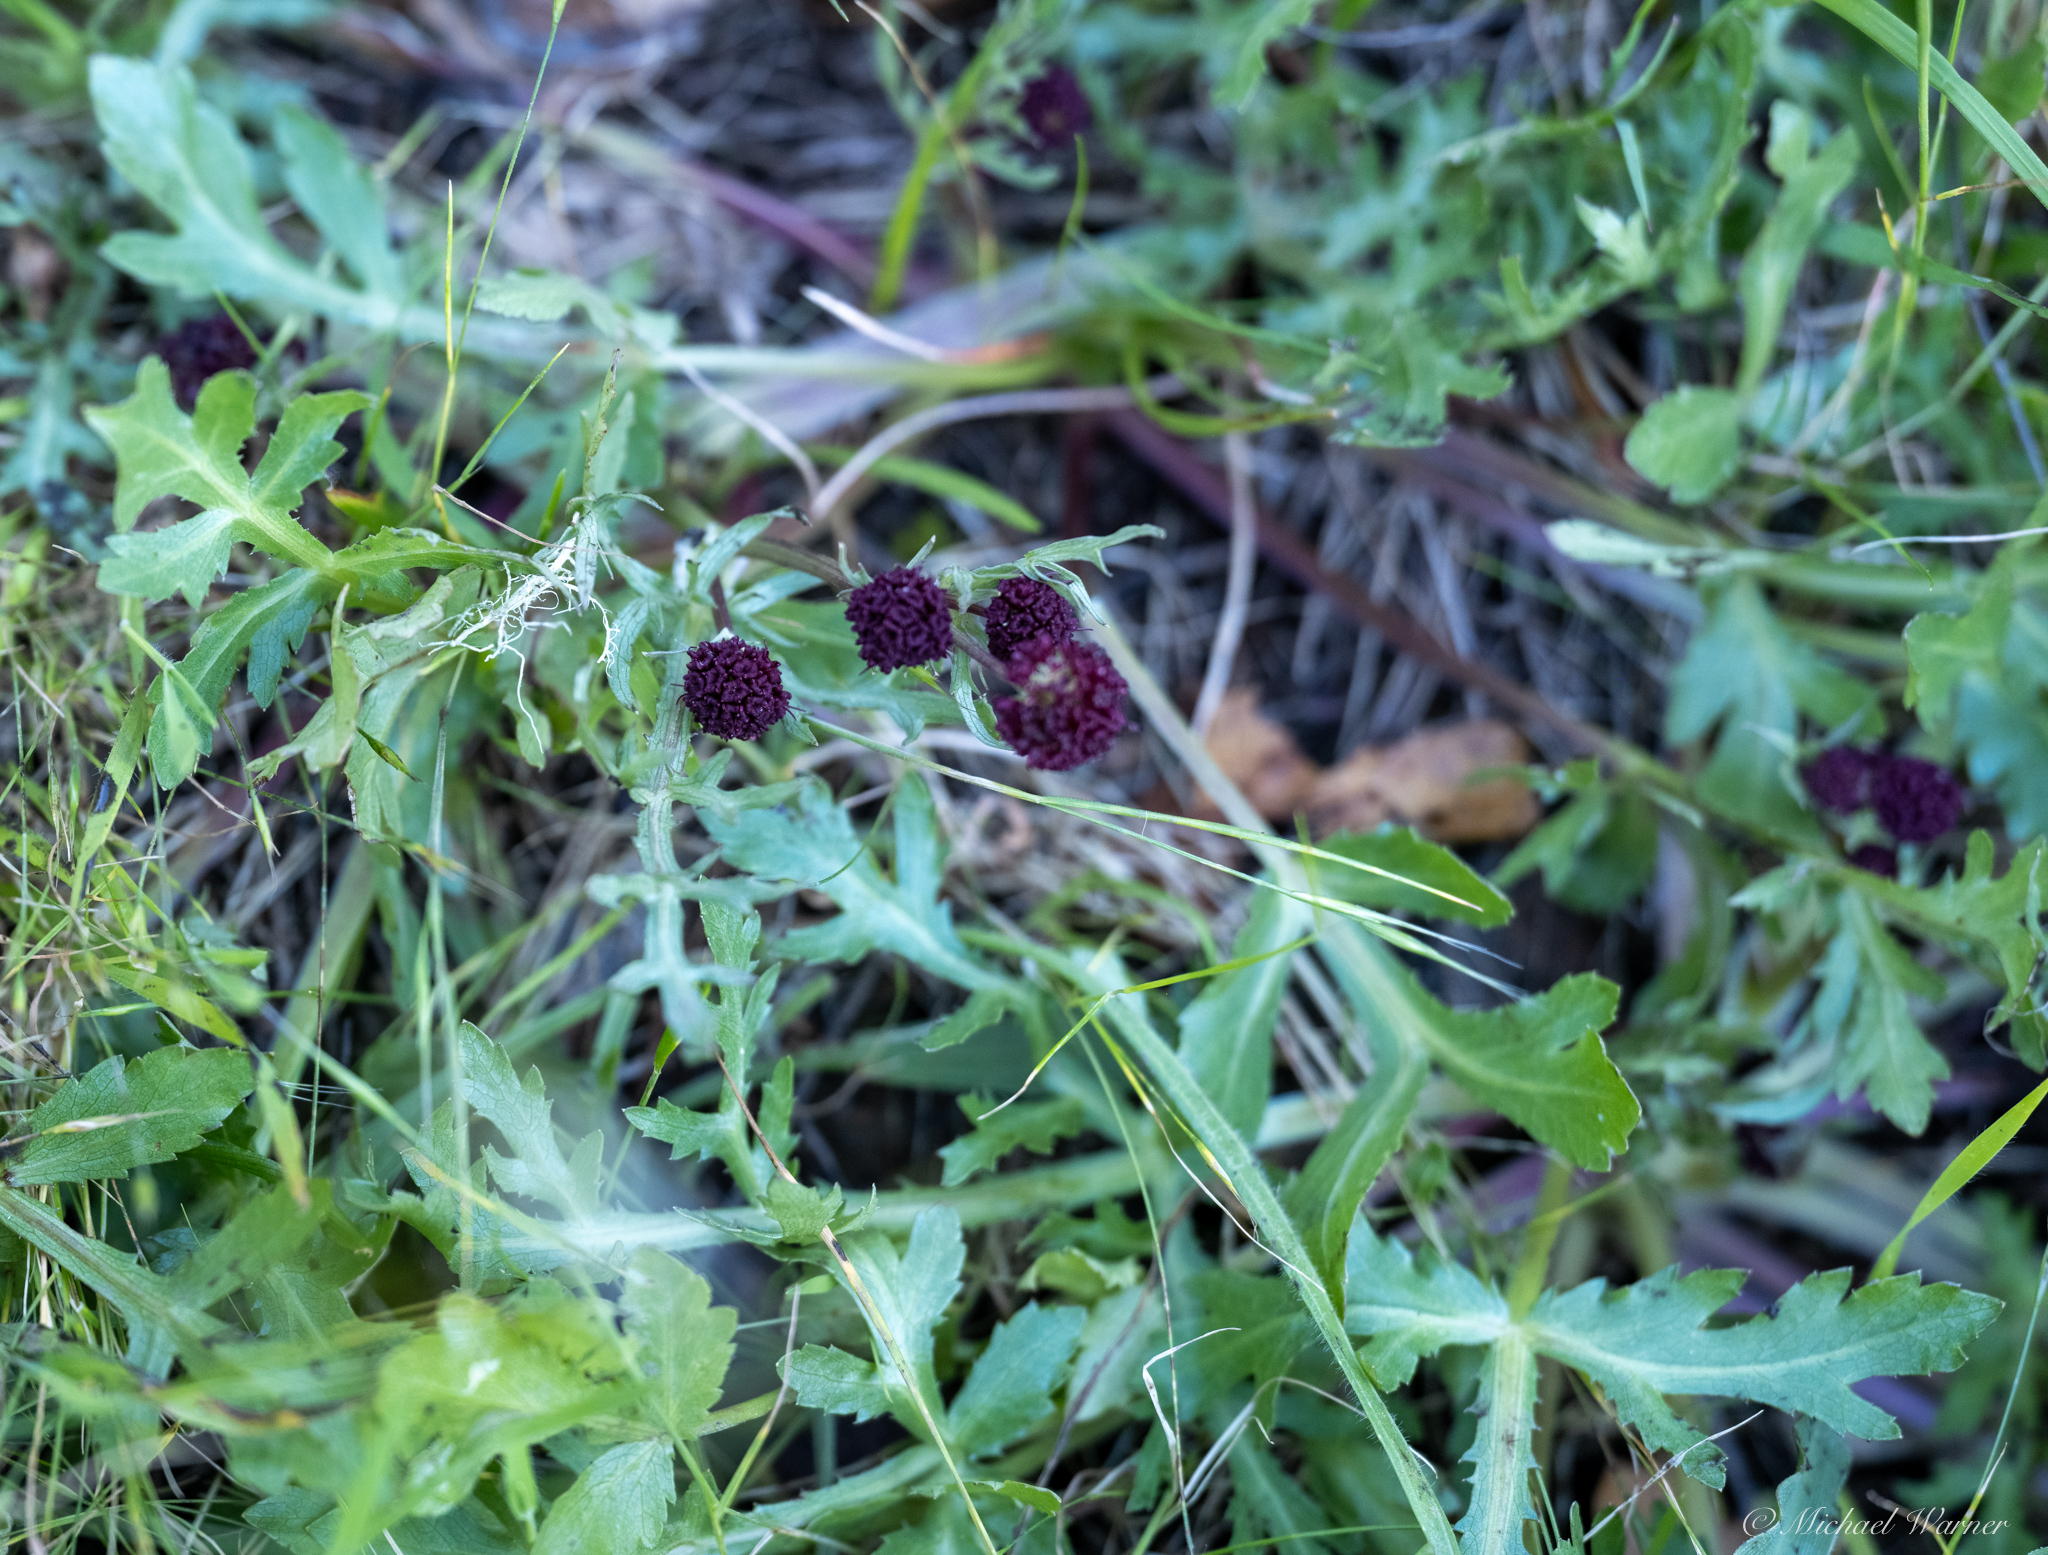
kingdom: Plantae
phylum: Tracheophyta
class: Magnoliopsida
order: Apiales
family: Apiaceae
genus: Sanicula
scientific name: Sanicula bipinnatifida
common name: Shoe-buttons
